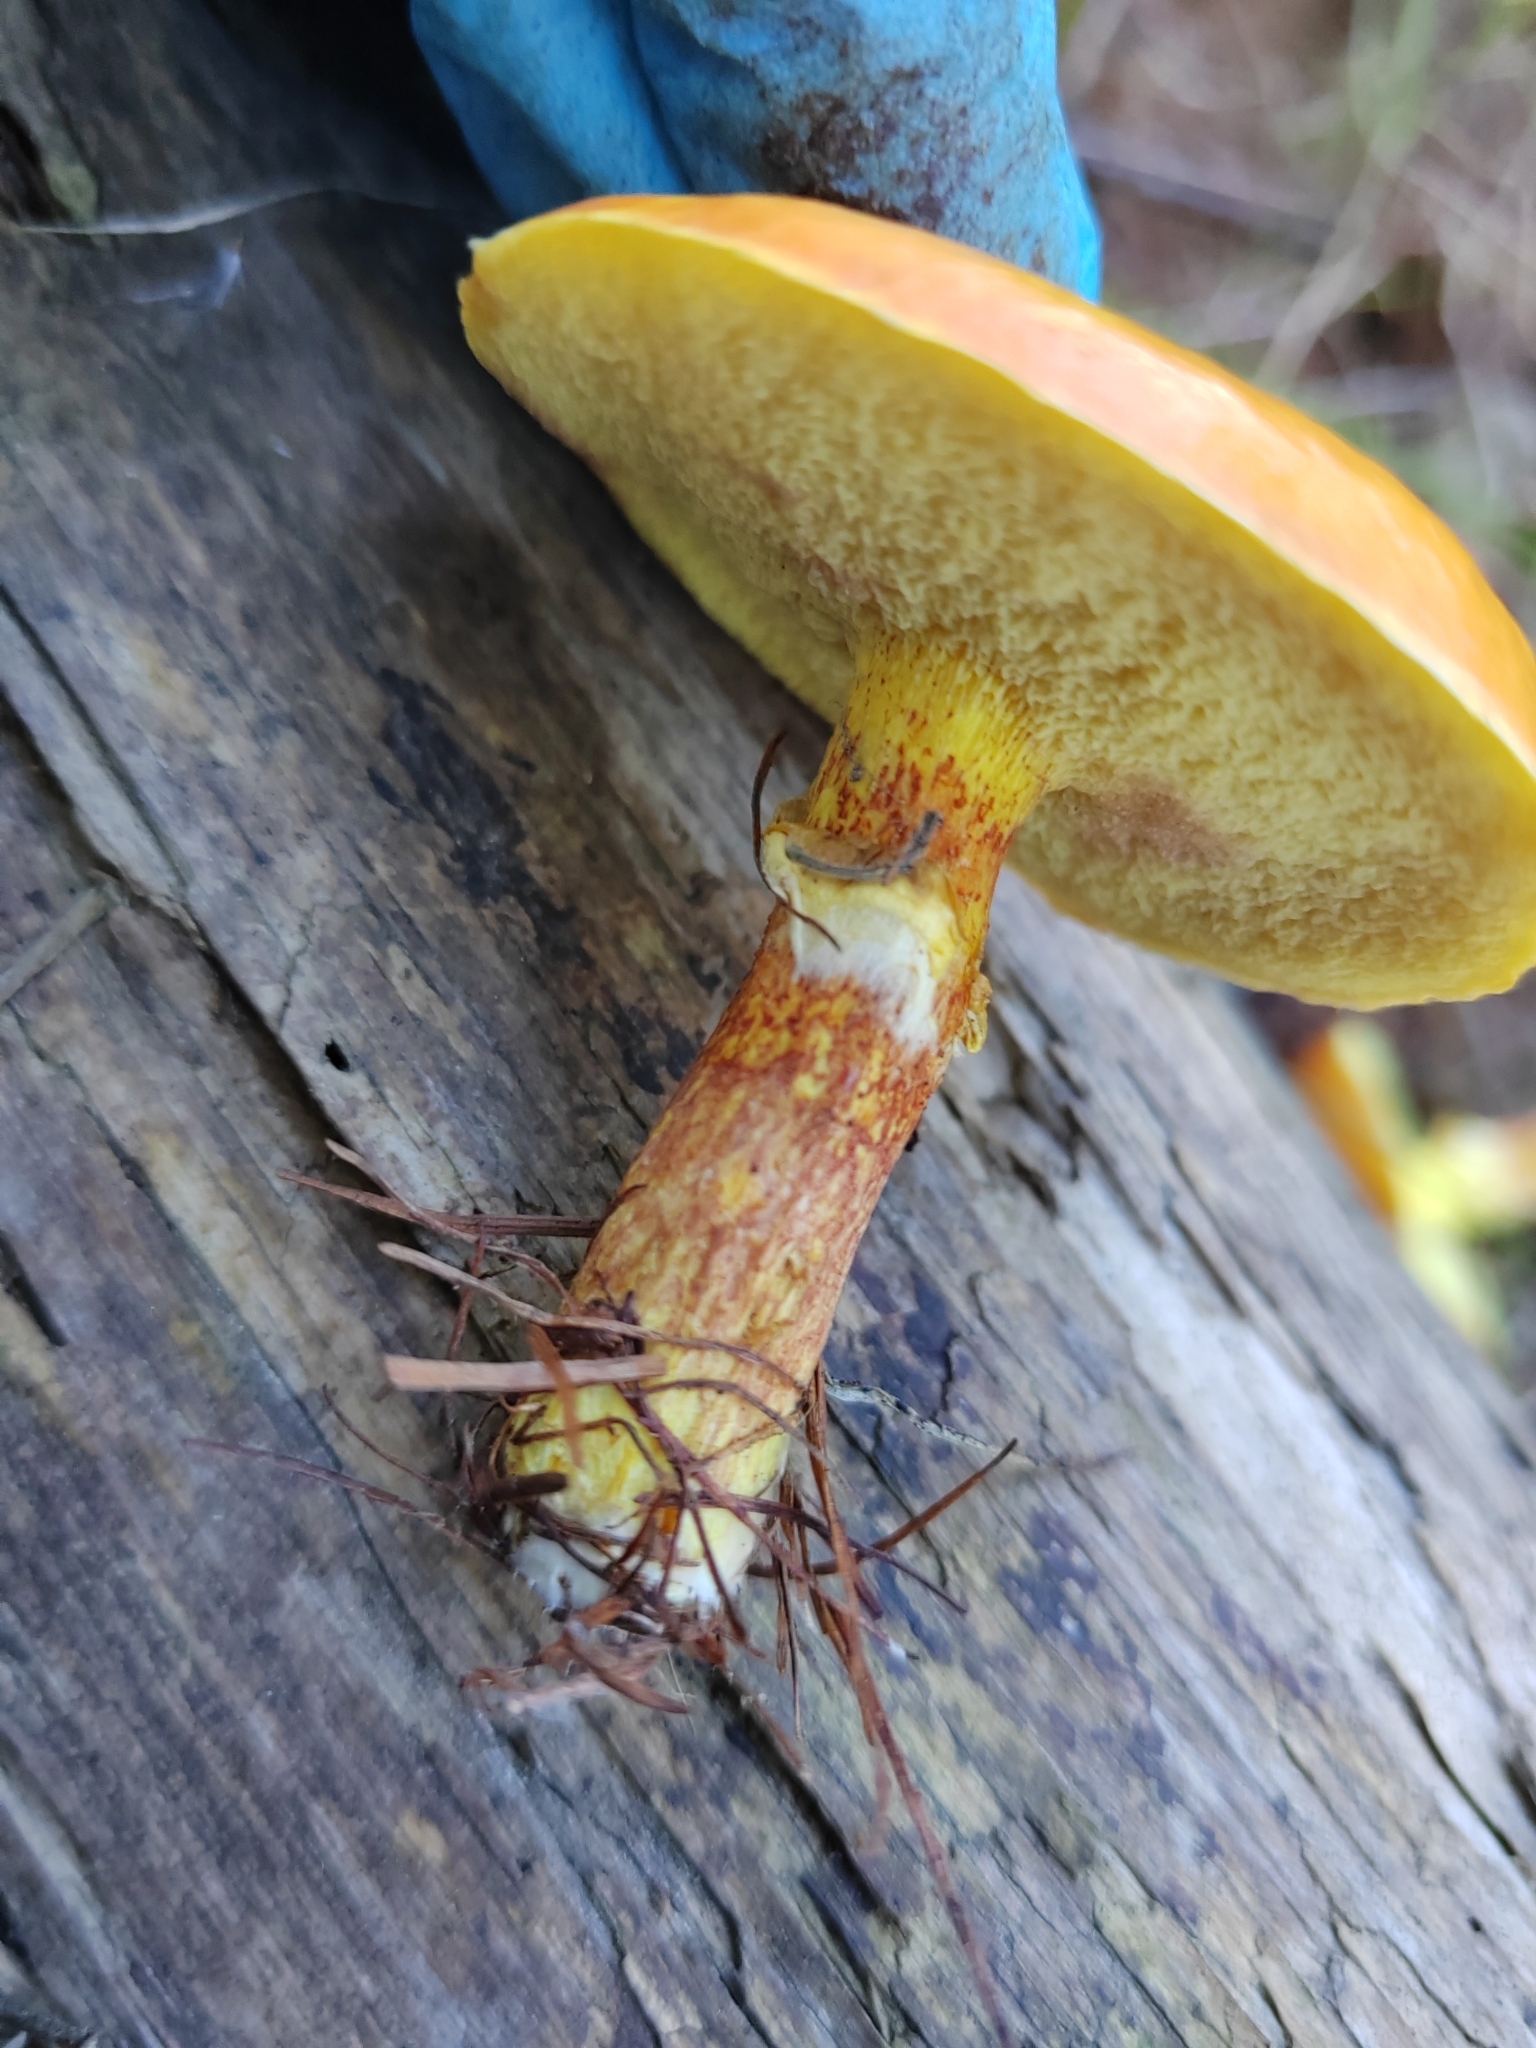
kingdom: Fungi
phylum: Basidiomycota
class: Agaricomycetes
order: Boletales
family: Suillaceae
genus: Suillus
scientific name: Suillus grevillei
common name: Larch bolete
